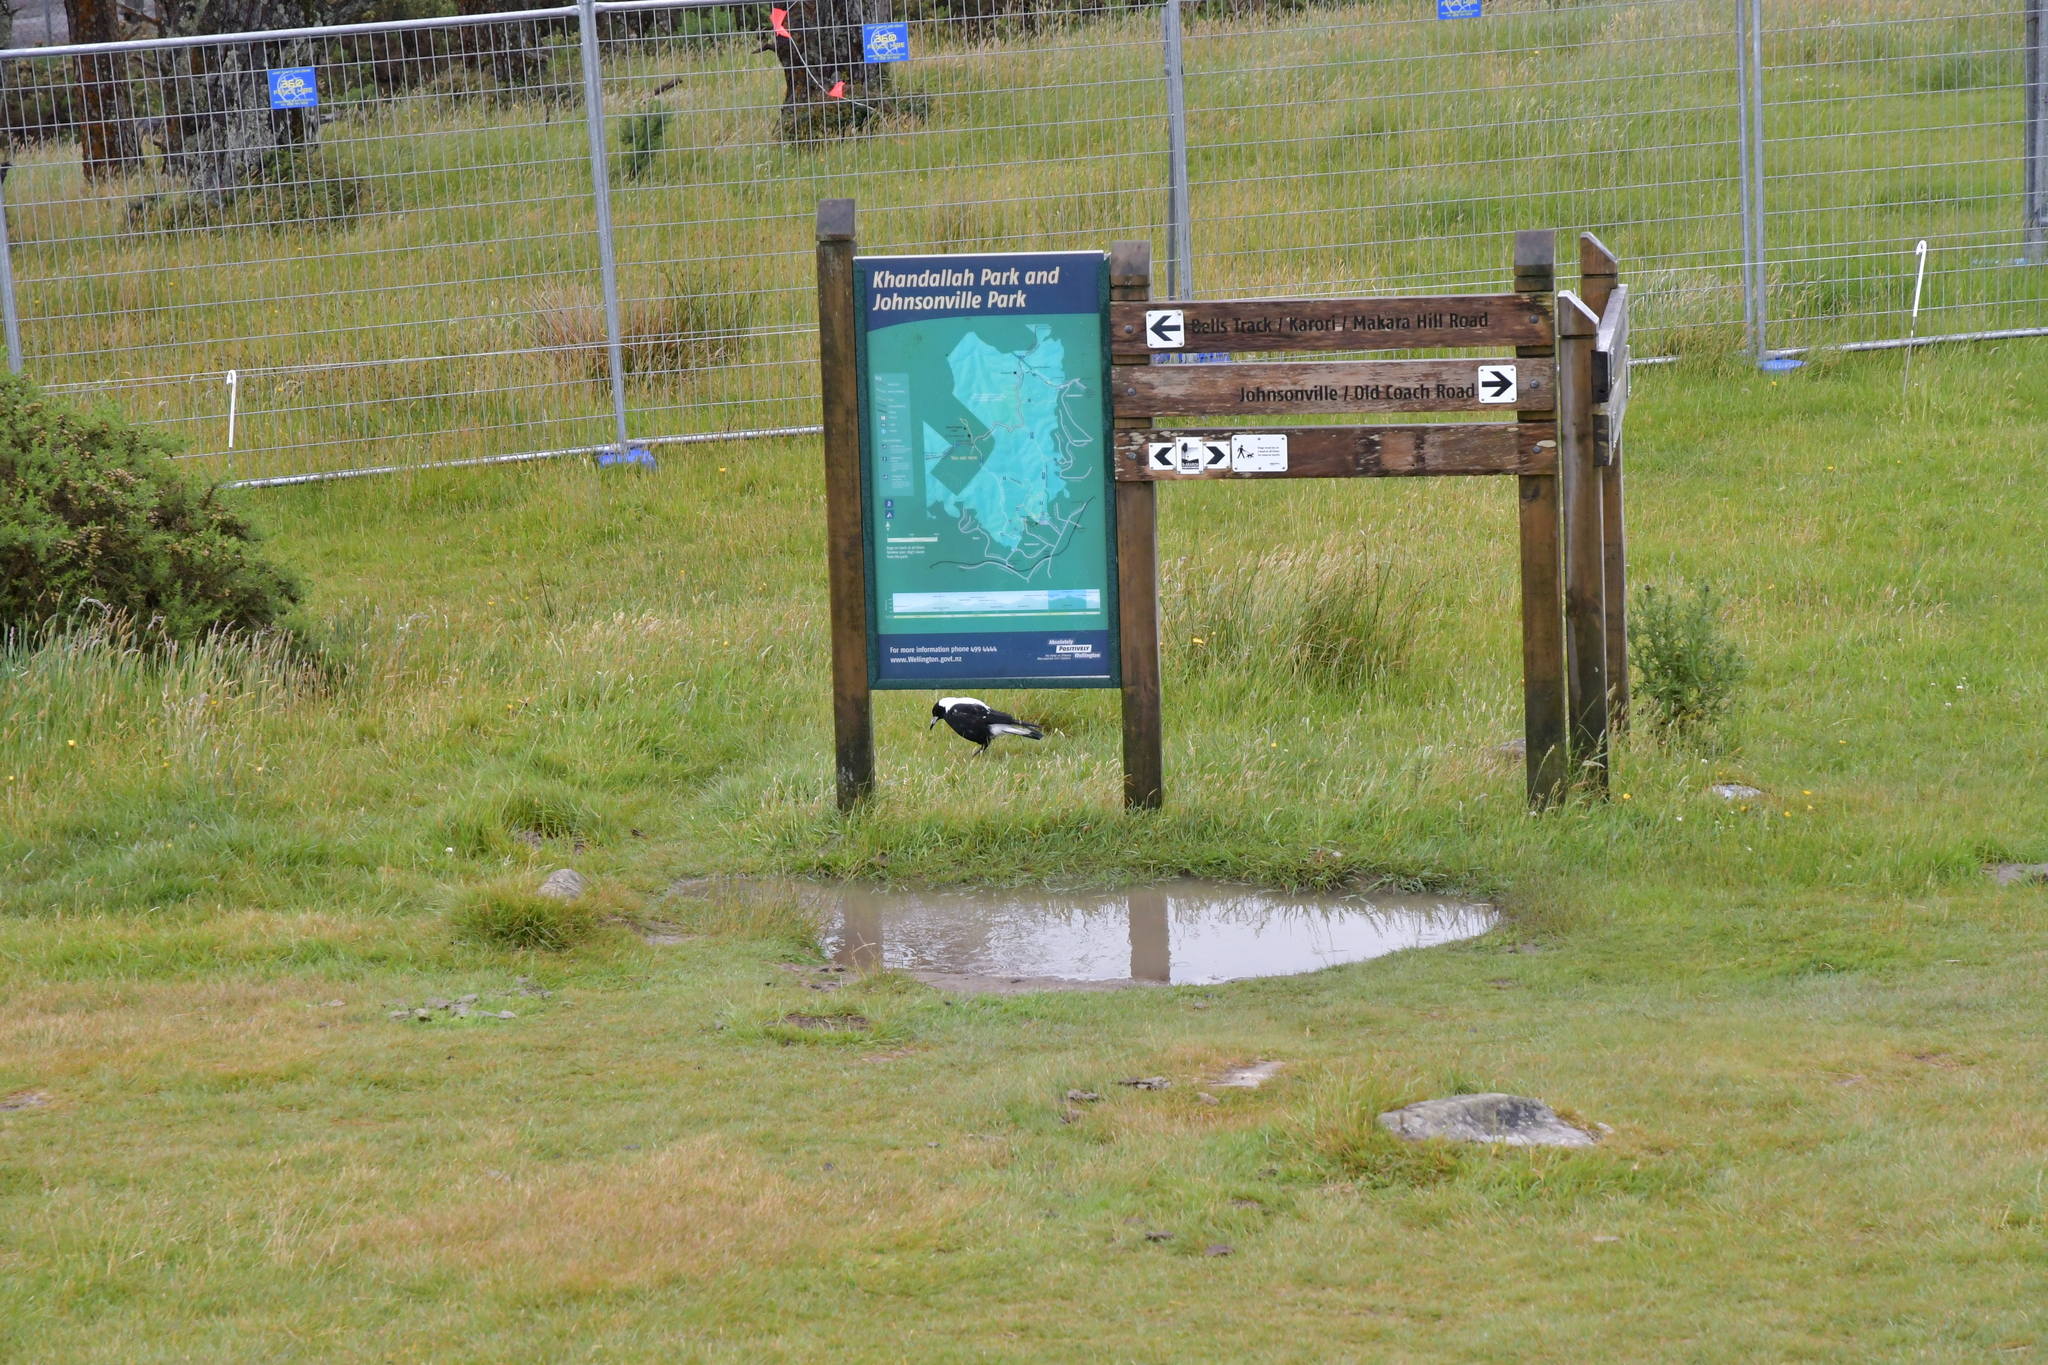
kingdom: Animalia
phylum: Chordata
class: Aves
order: Passeriformes
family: Cracticidae
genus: Gymnorhina
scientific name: Gymnorhina tibicen
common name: Australian magpie
